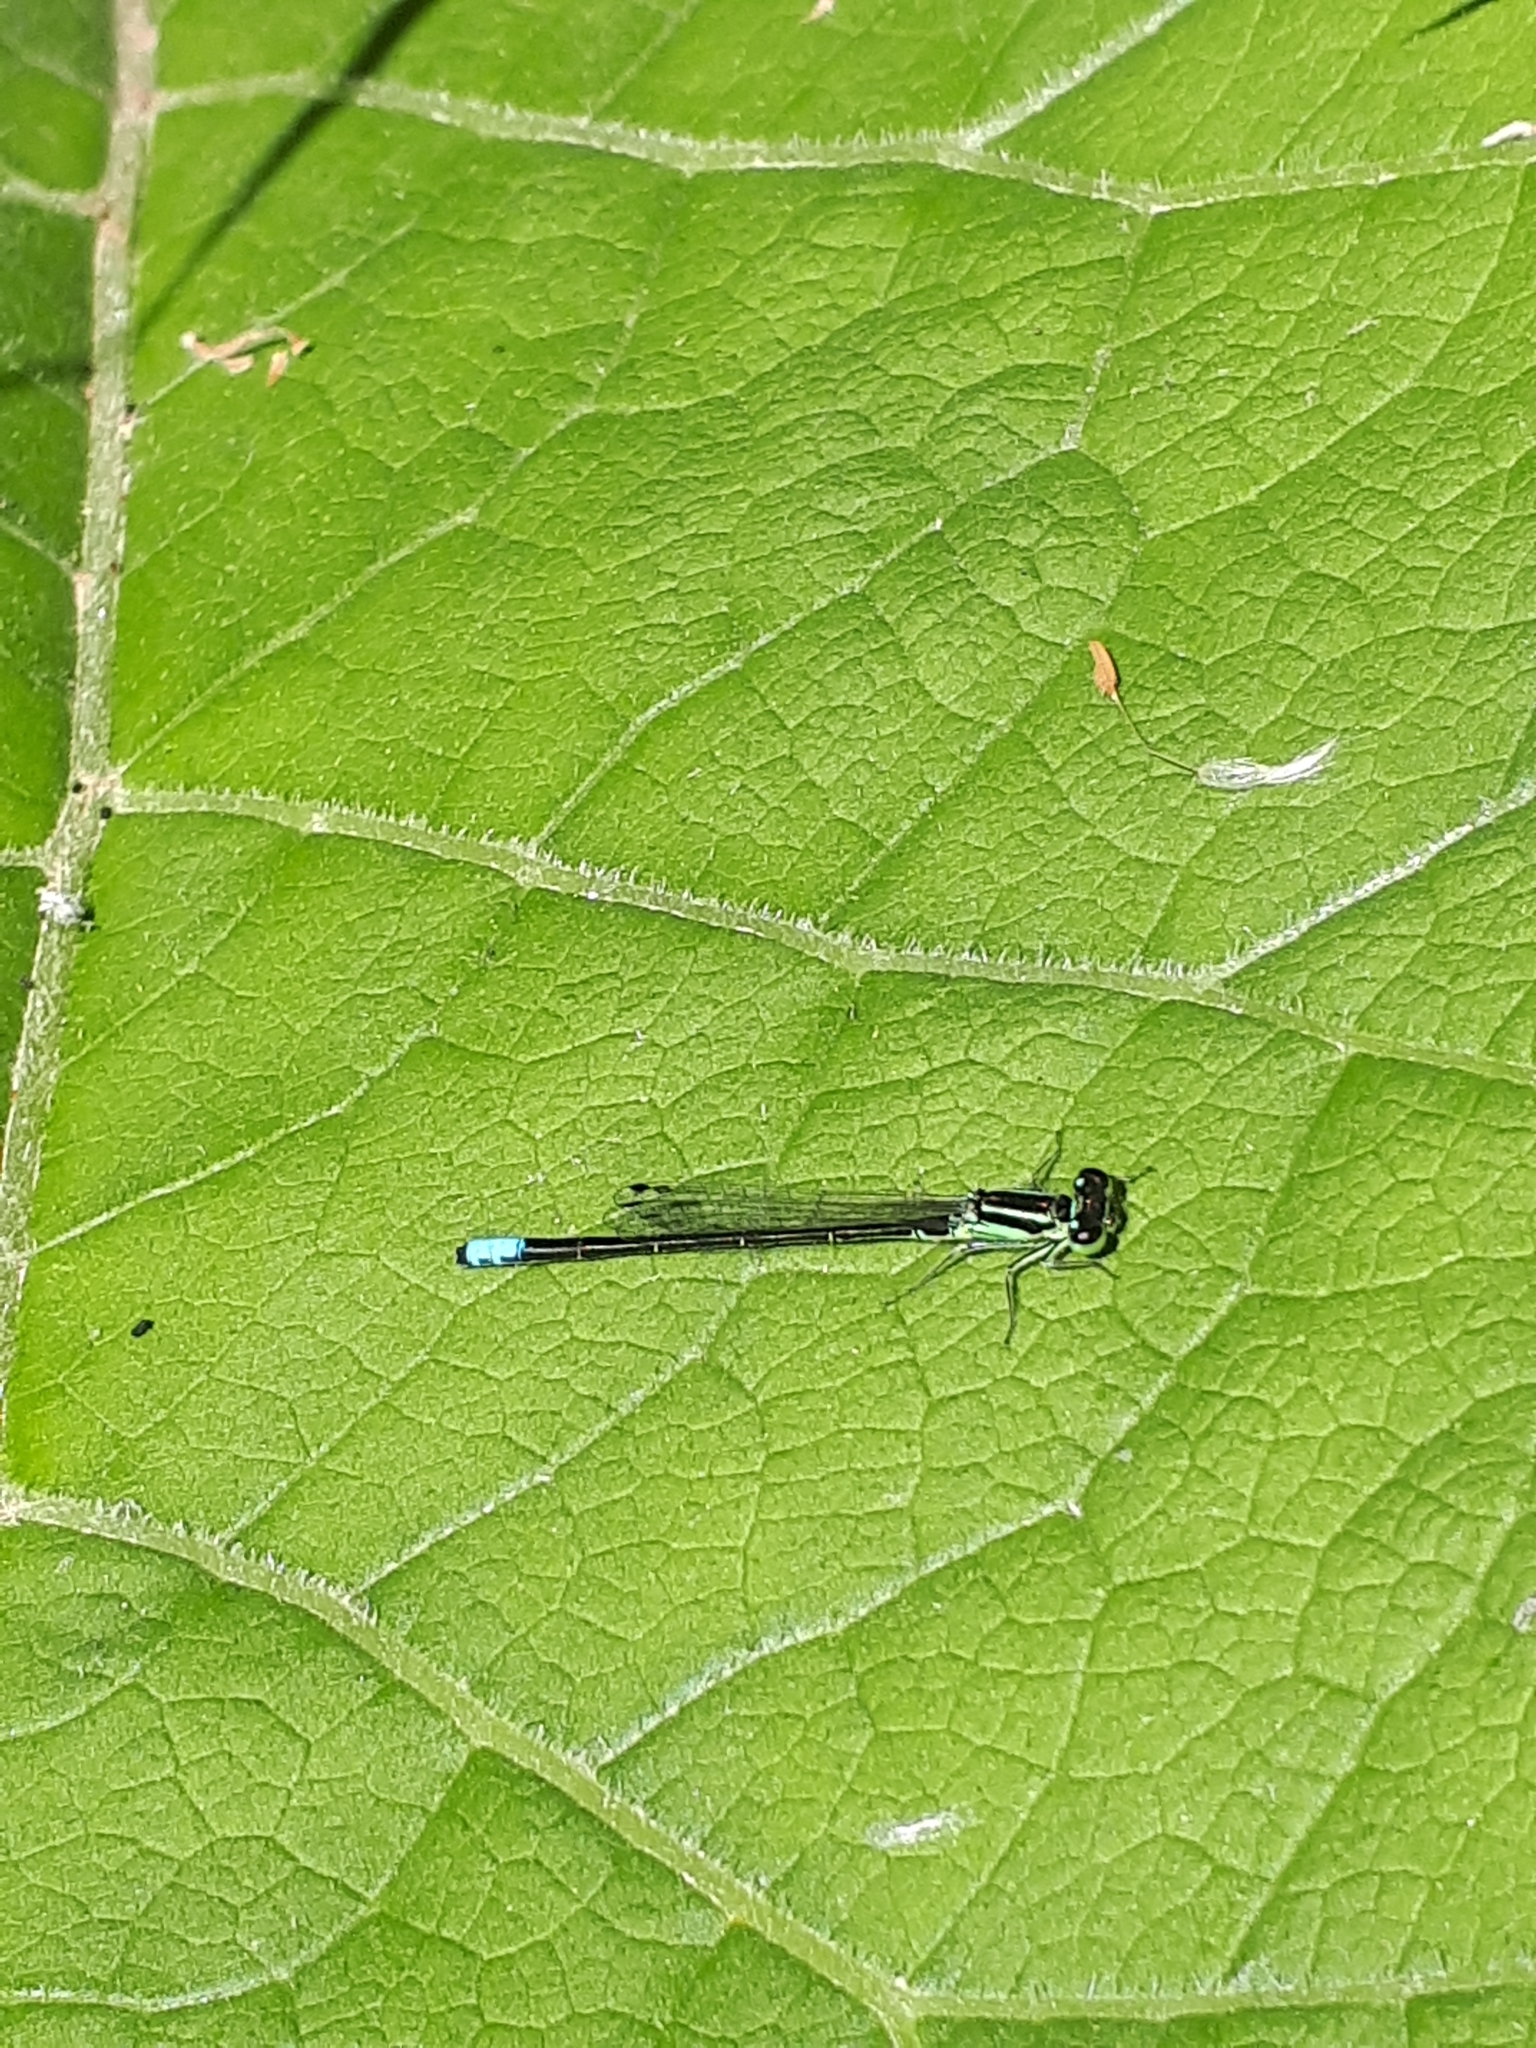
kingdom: Animalia
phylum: Arthropoda
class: Insecta
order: Odonata
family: Coenagrionidae
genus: Ischnura
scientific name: Ischnura verticalis
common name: Eastern forktail
